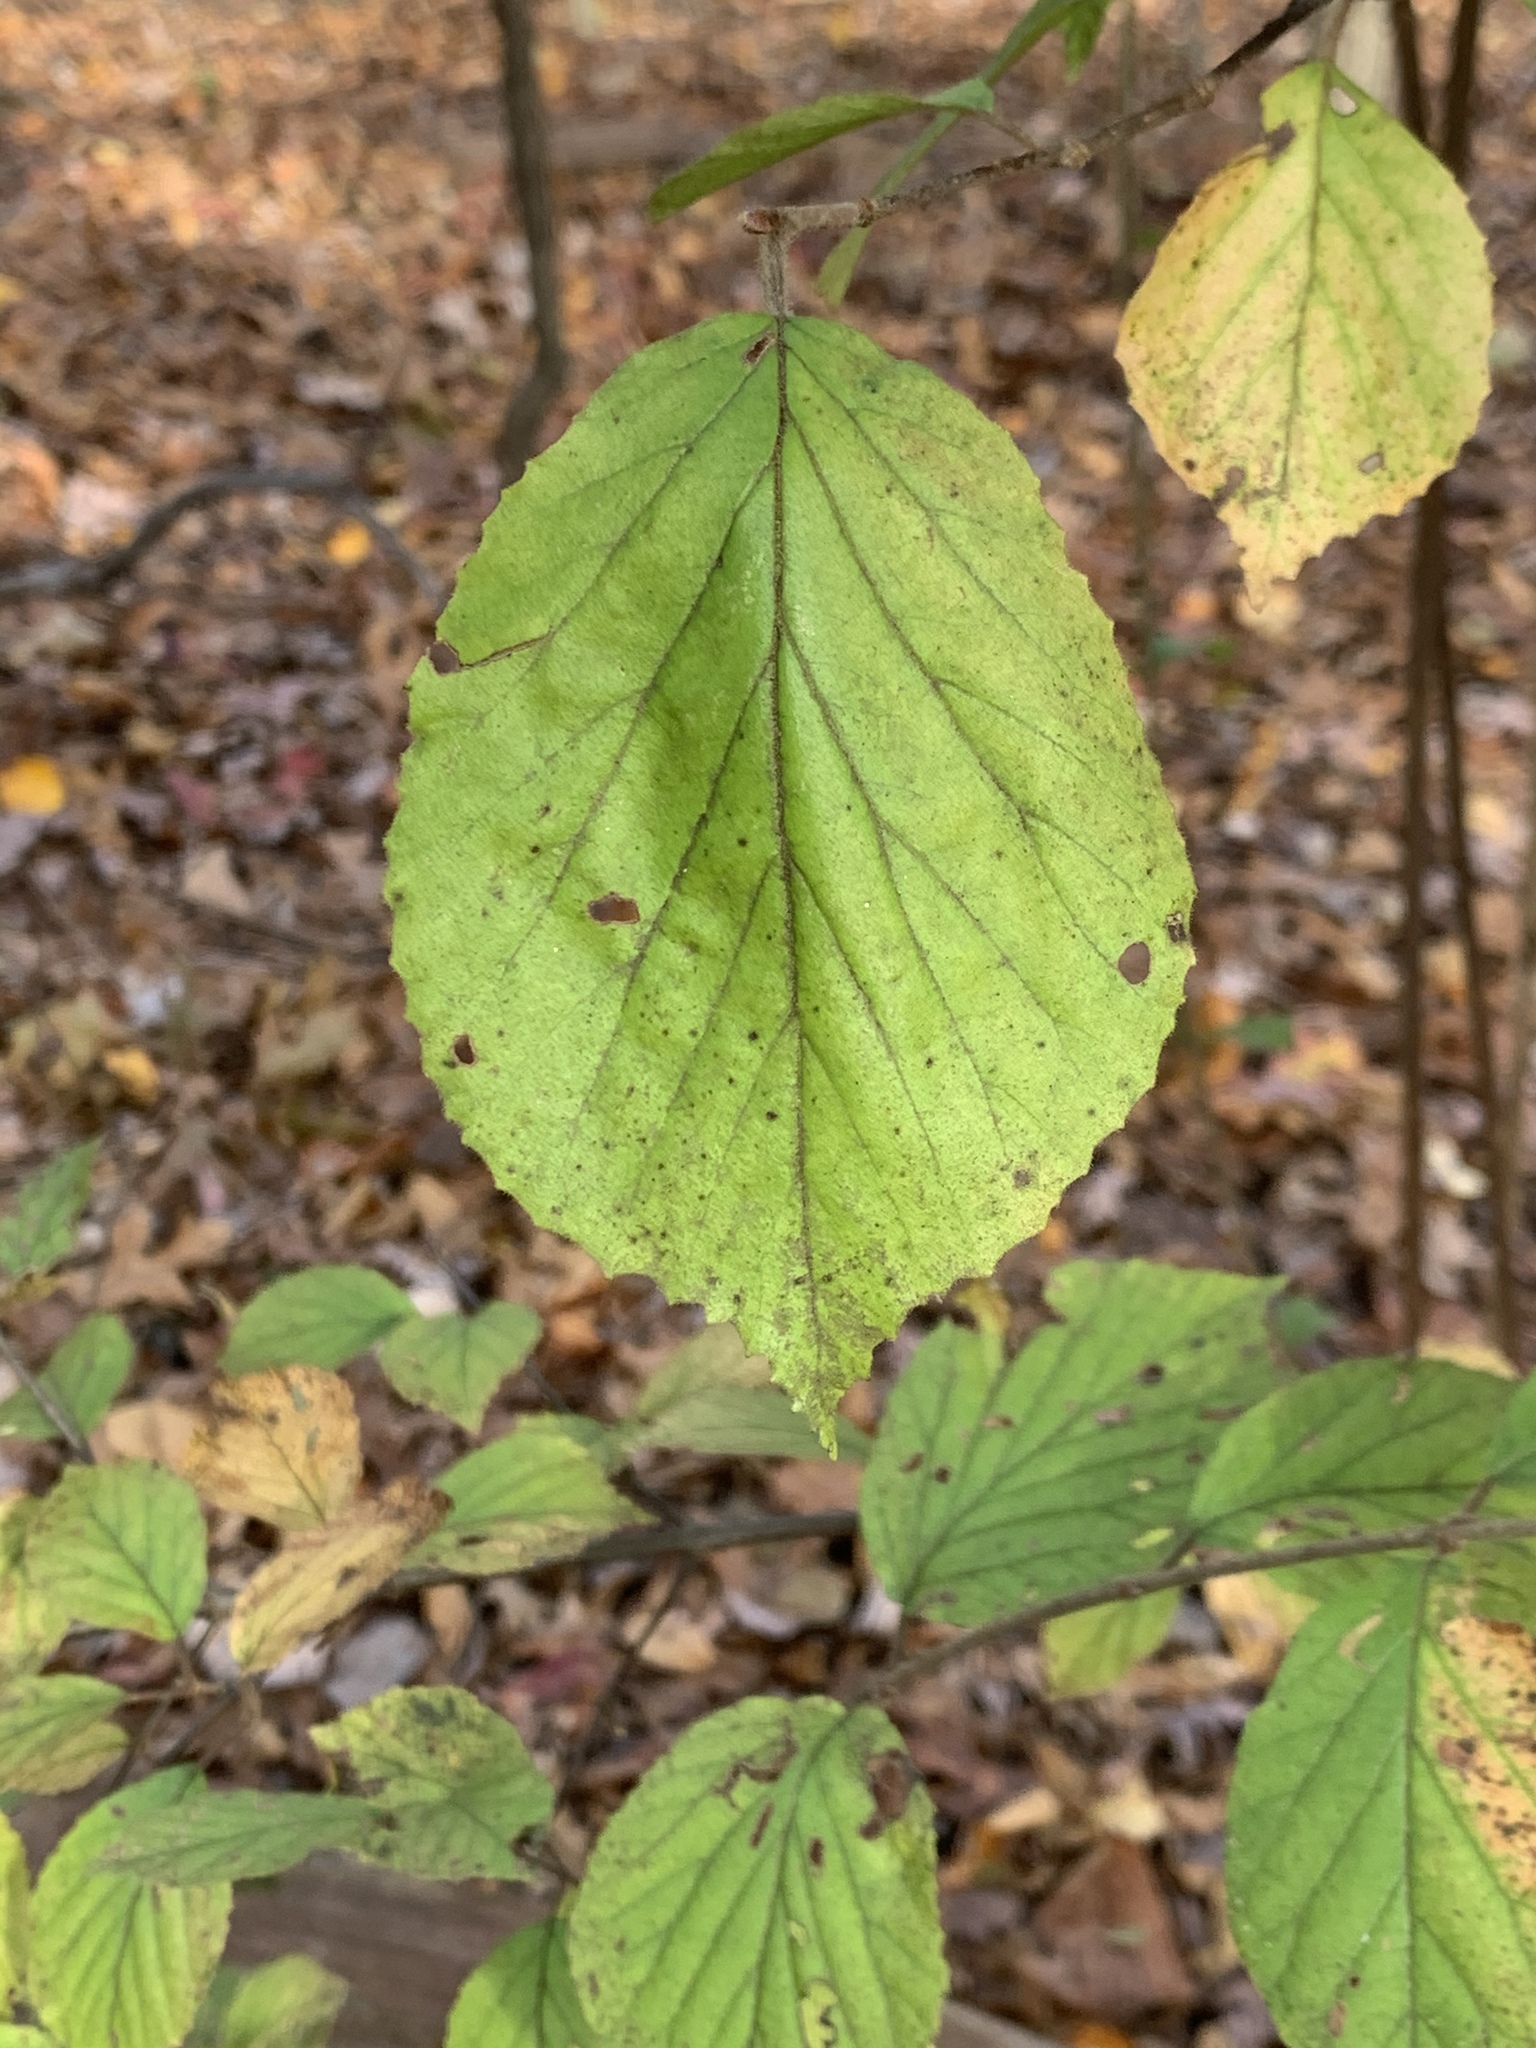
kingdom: Plantae
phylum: Tracheophyta
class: Magnoliopsida
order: Dipsacales
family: Viburnaceae
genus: Viburnum
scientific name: Viburnum dilatatum
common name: Linden arrowwood
